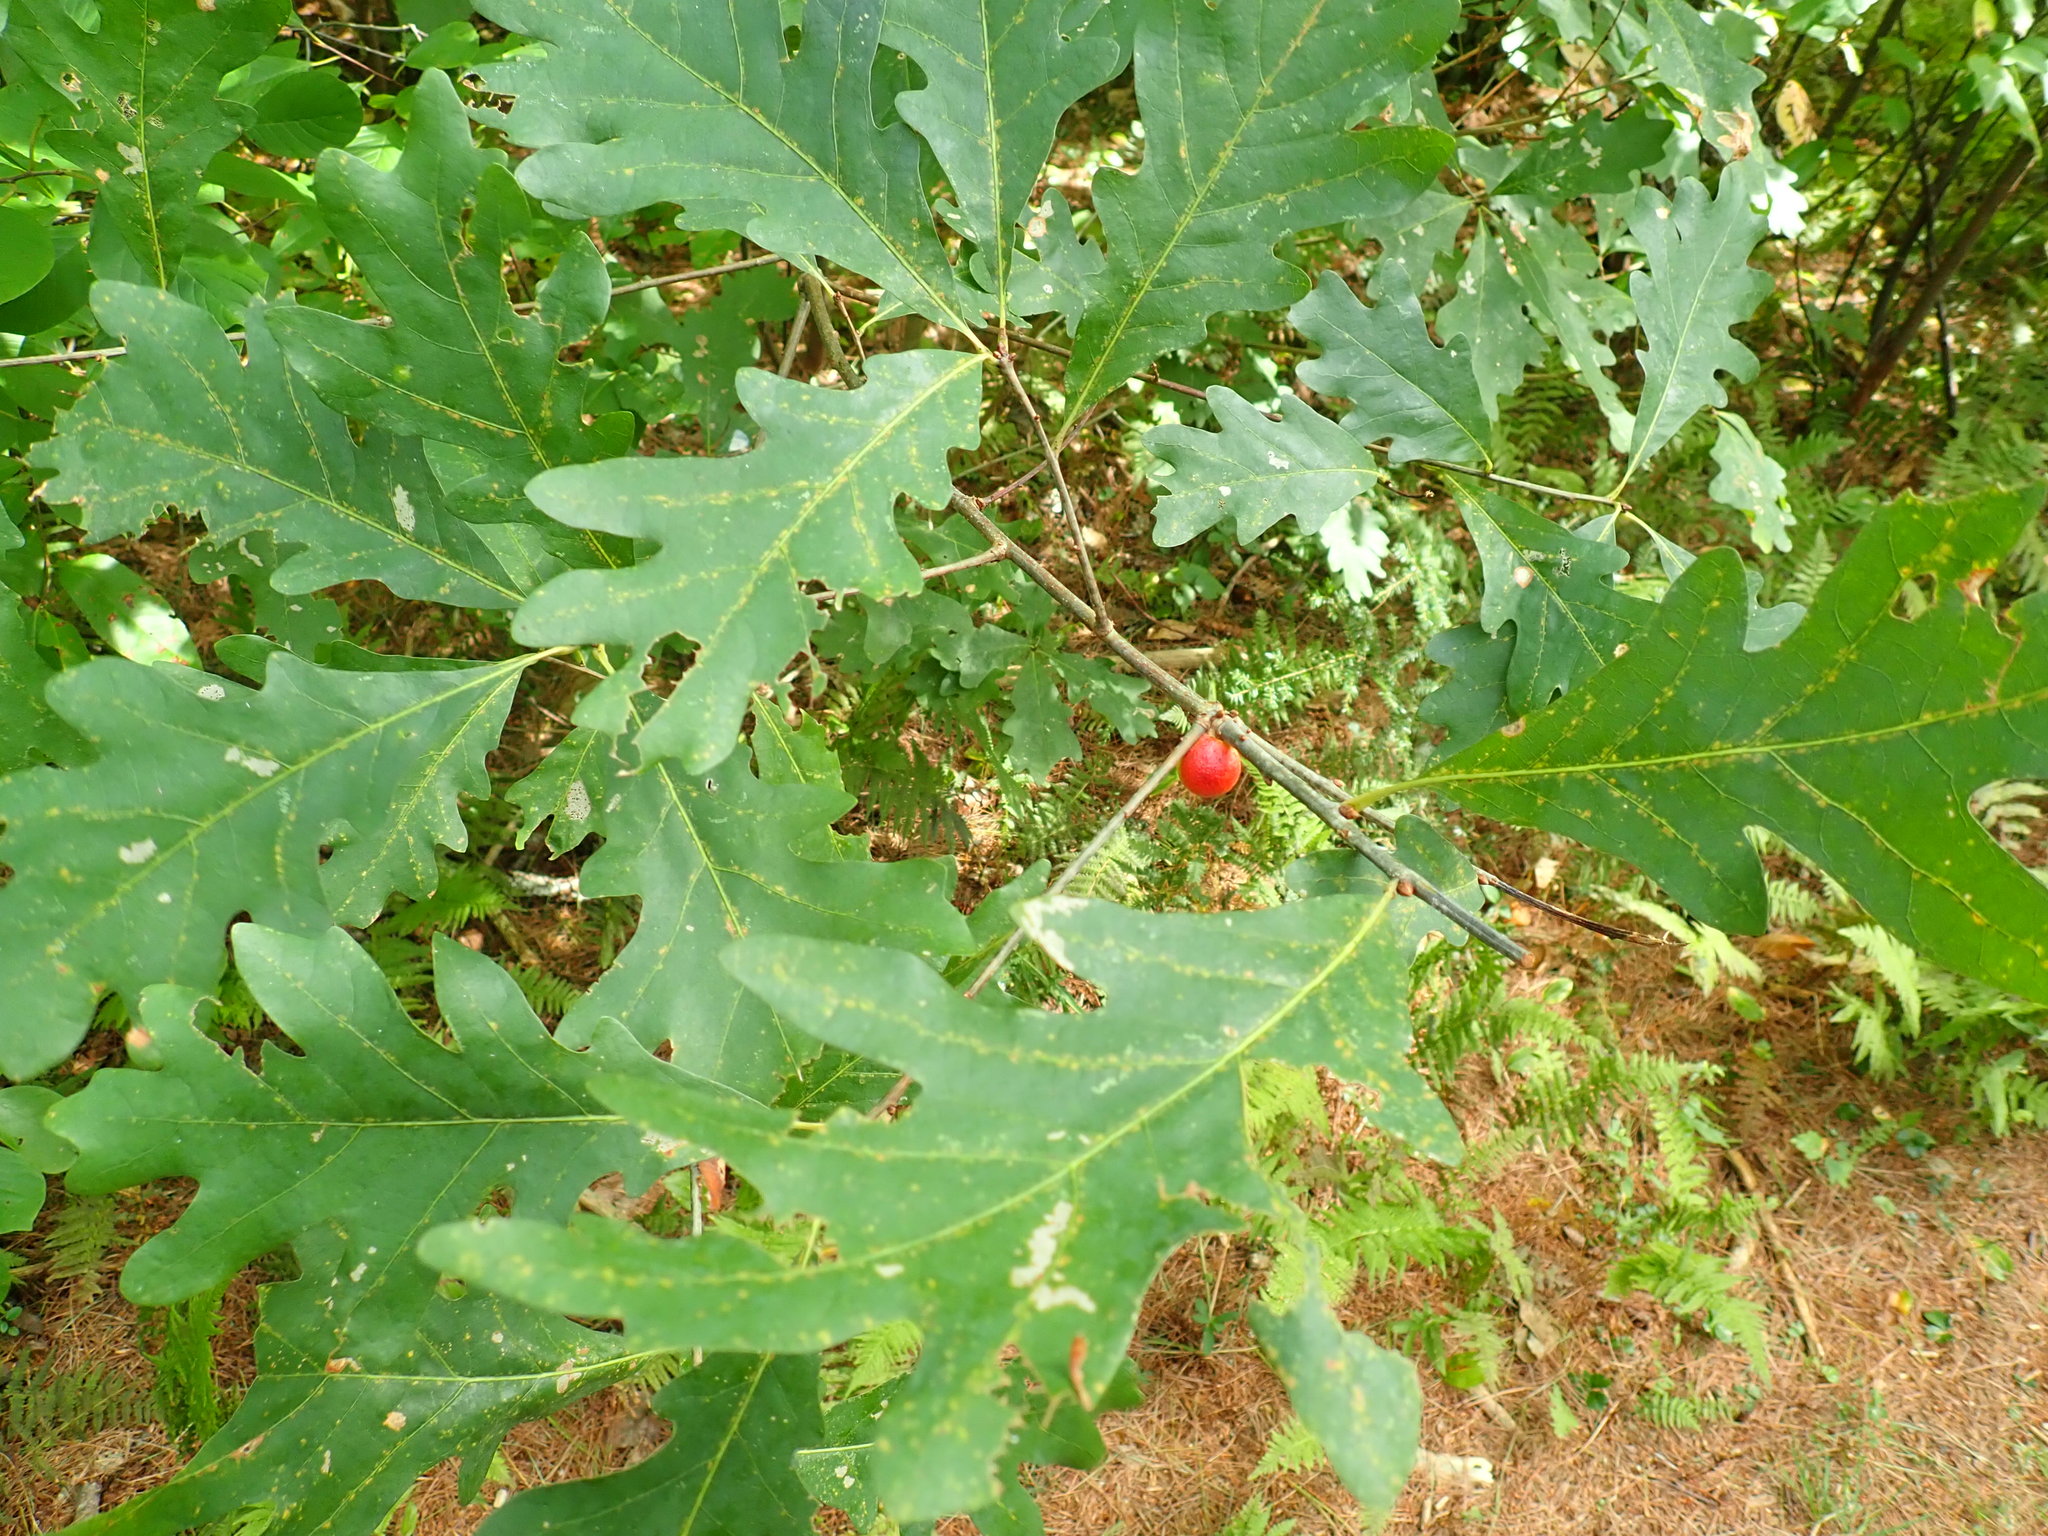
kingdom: Animalia
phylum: Arthropoda
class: Insecta
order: Hymenoptera
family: Cynipidae
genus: Disholcaspis
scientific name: Disholcaspis quercusglobulus
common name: Round bullet gall wasp
